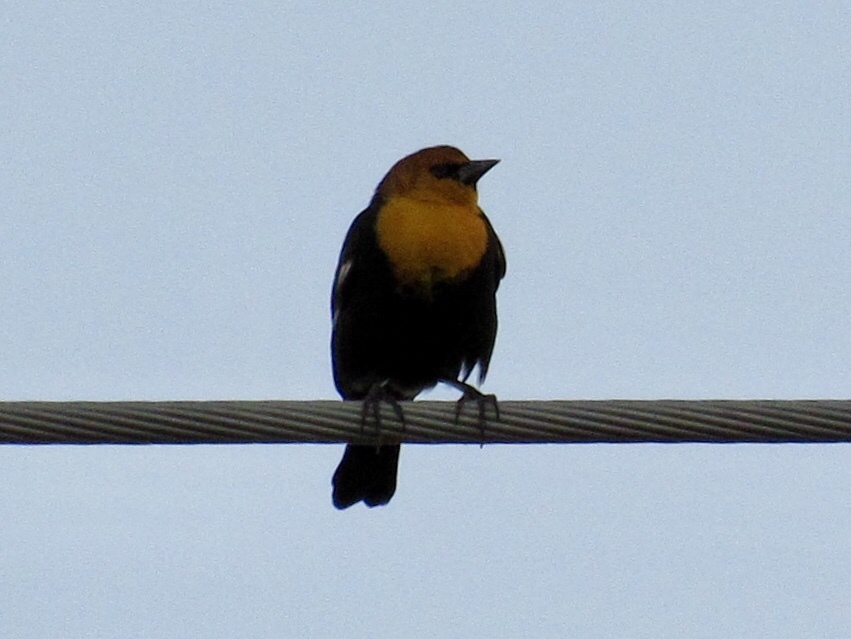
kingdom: Animalia
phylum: Chordata
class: Aves
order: Passeriformes
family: Icteridae
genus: Xanthocephalus
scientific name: Xanthocephalus xanthocephalus
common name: Yellow-headed blackbird
